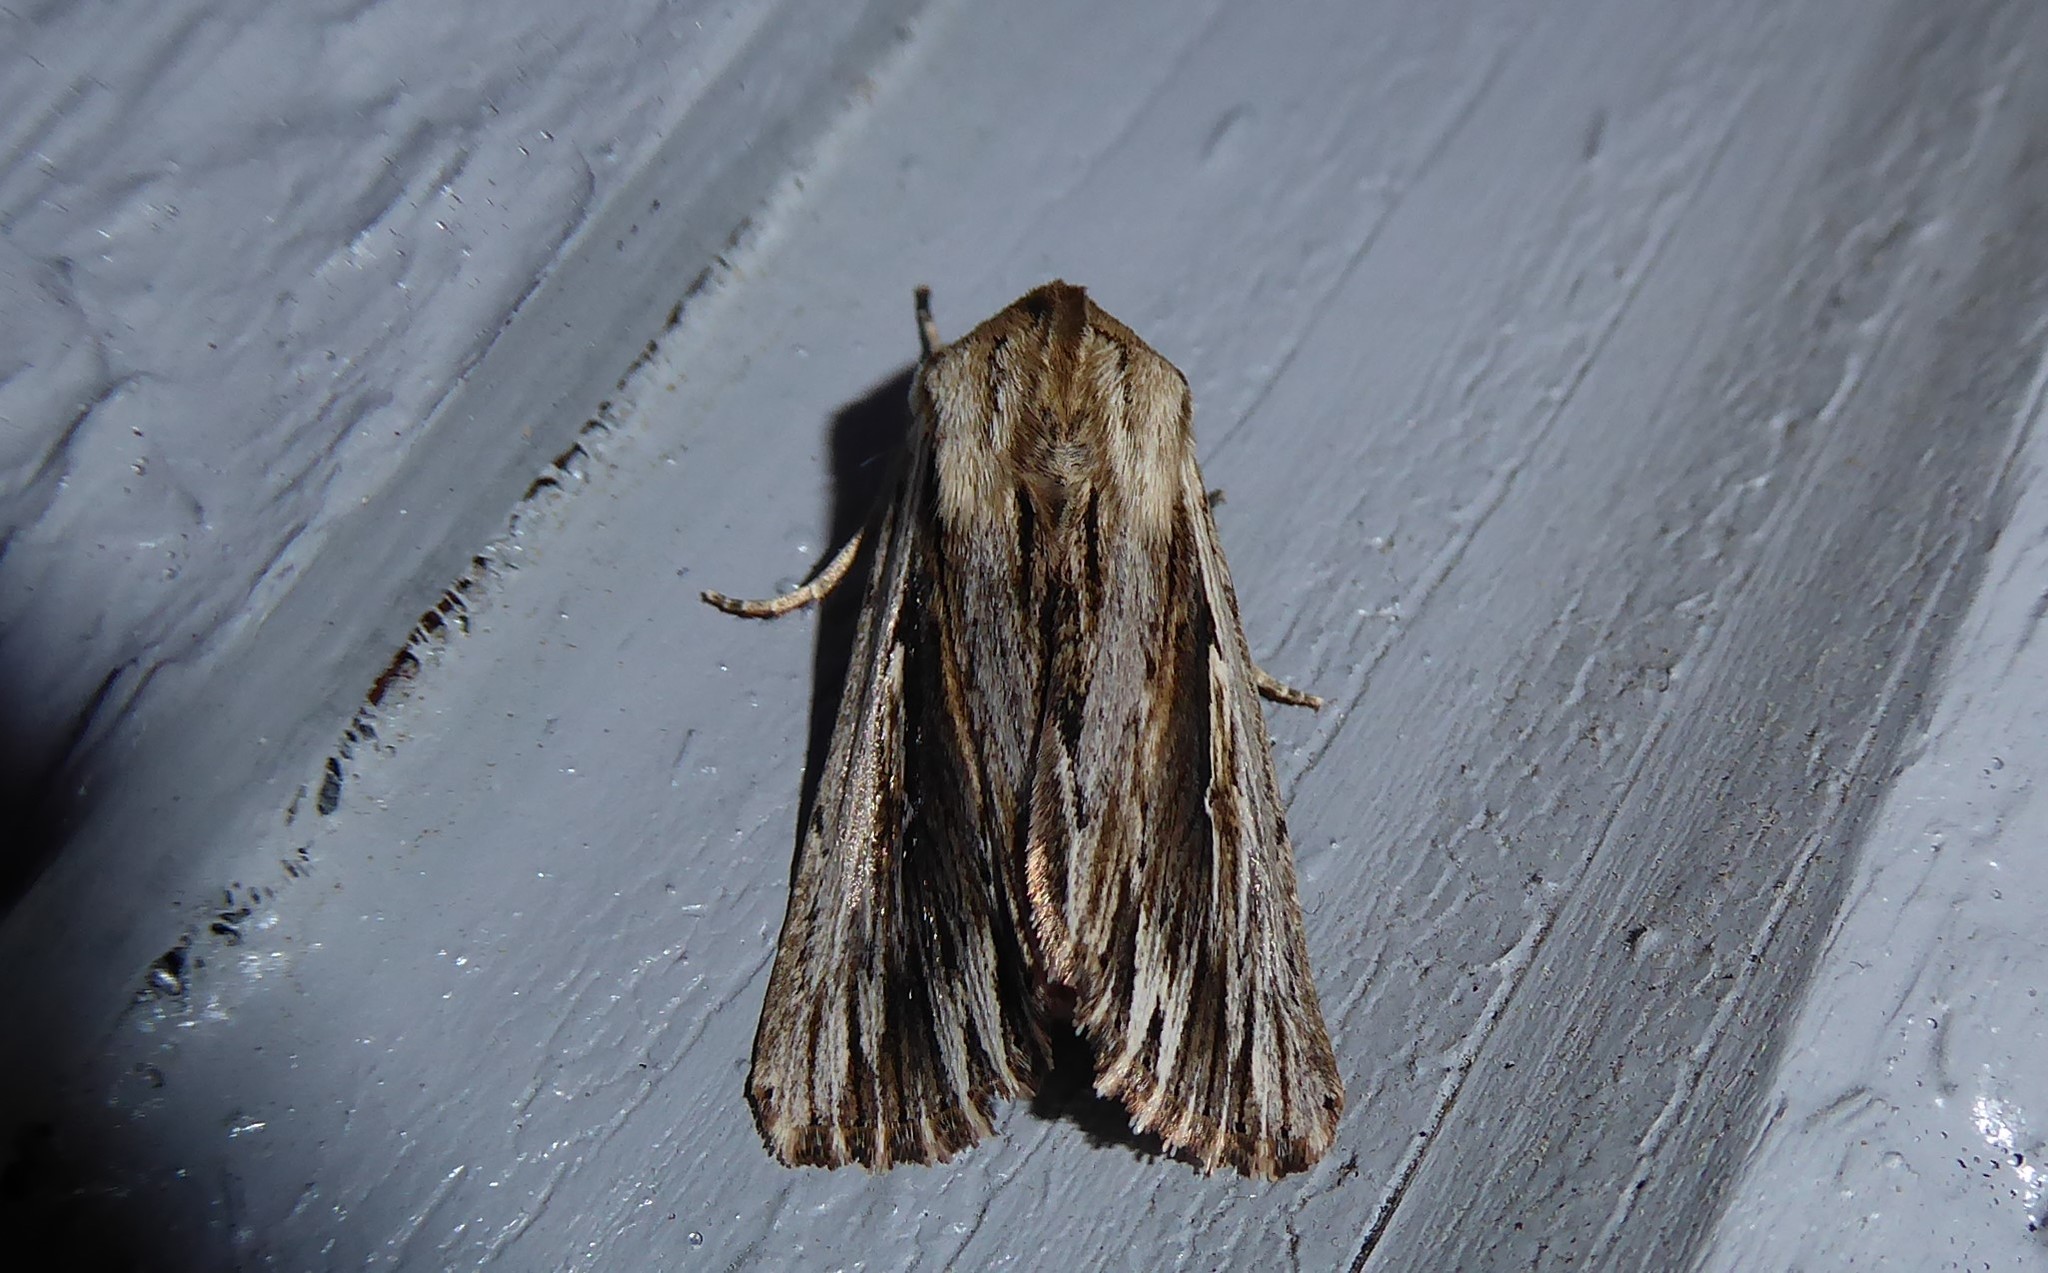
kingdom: Animalia
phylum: Arthropoda
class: Insecta
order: Lepidoptera
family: Noctuidae
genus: Persectania
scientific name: Persectania aversa
